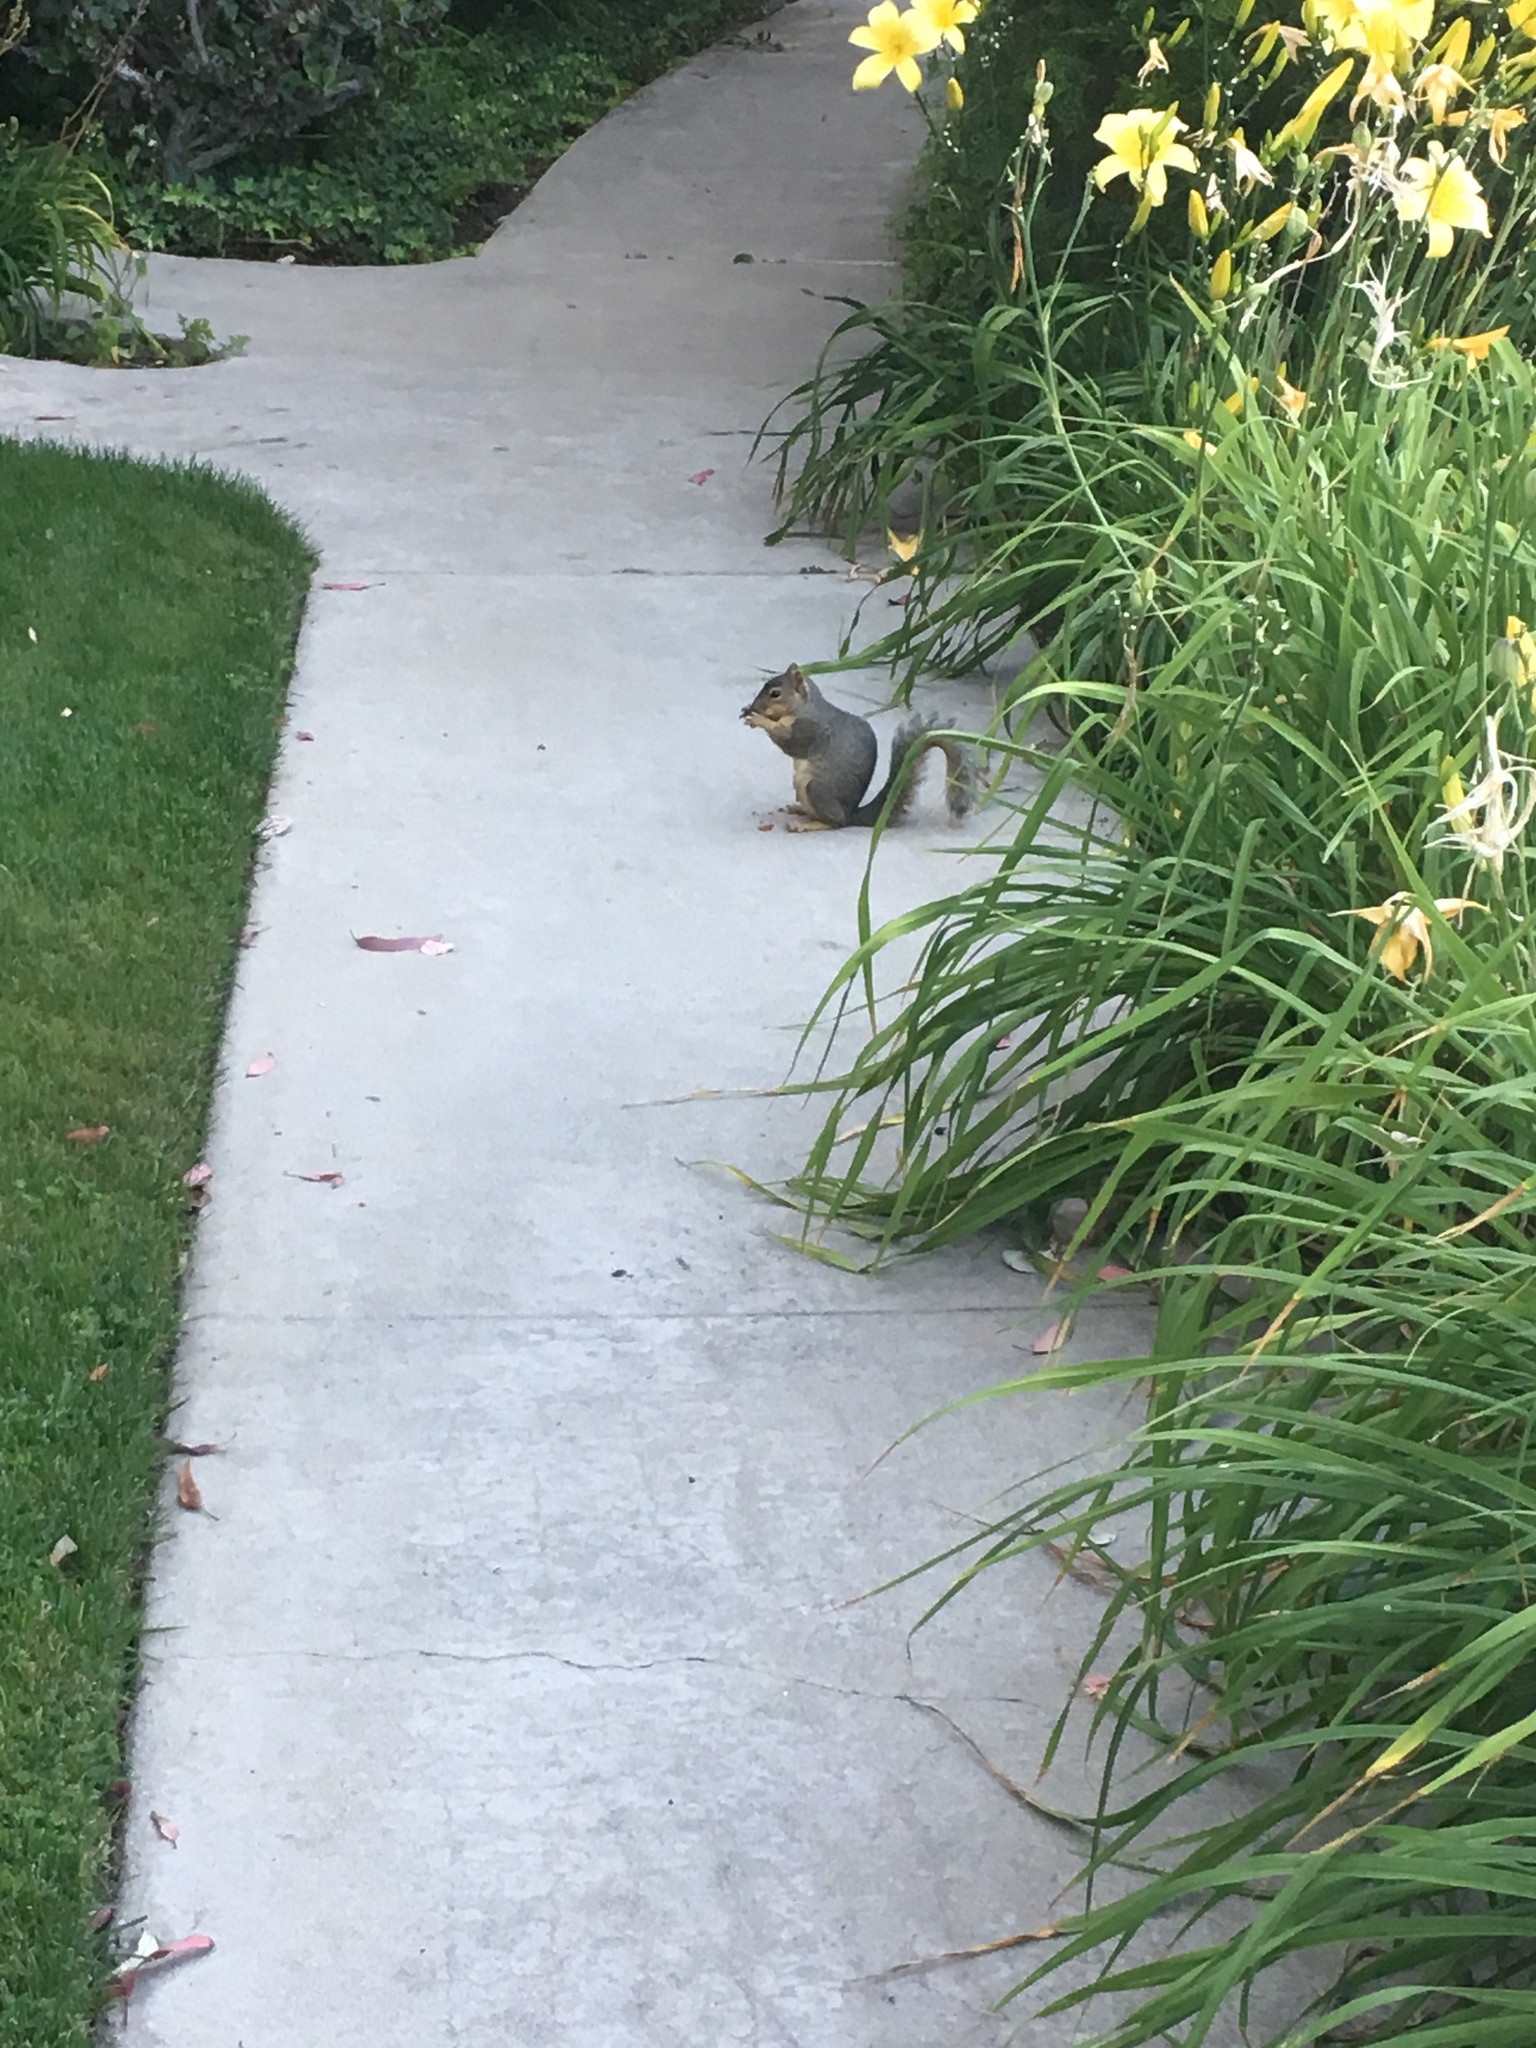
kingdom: Animalia
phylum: Chordata
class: Mammalia
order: Rodentia
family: Sciuridae
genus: Sciurus
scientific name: Sciurus niger
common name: Fox squirrel
